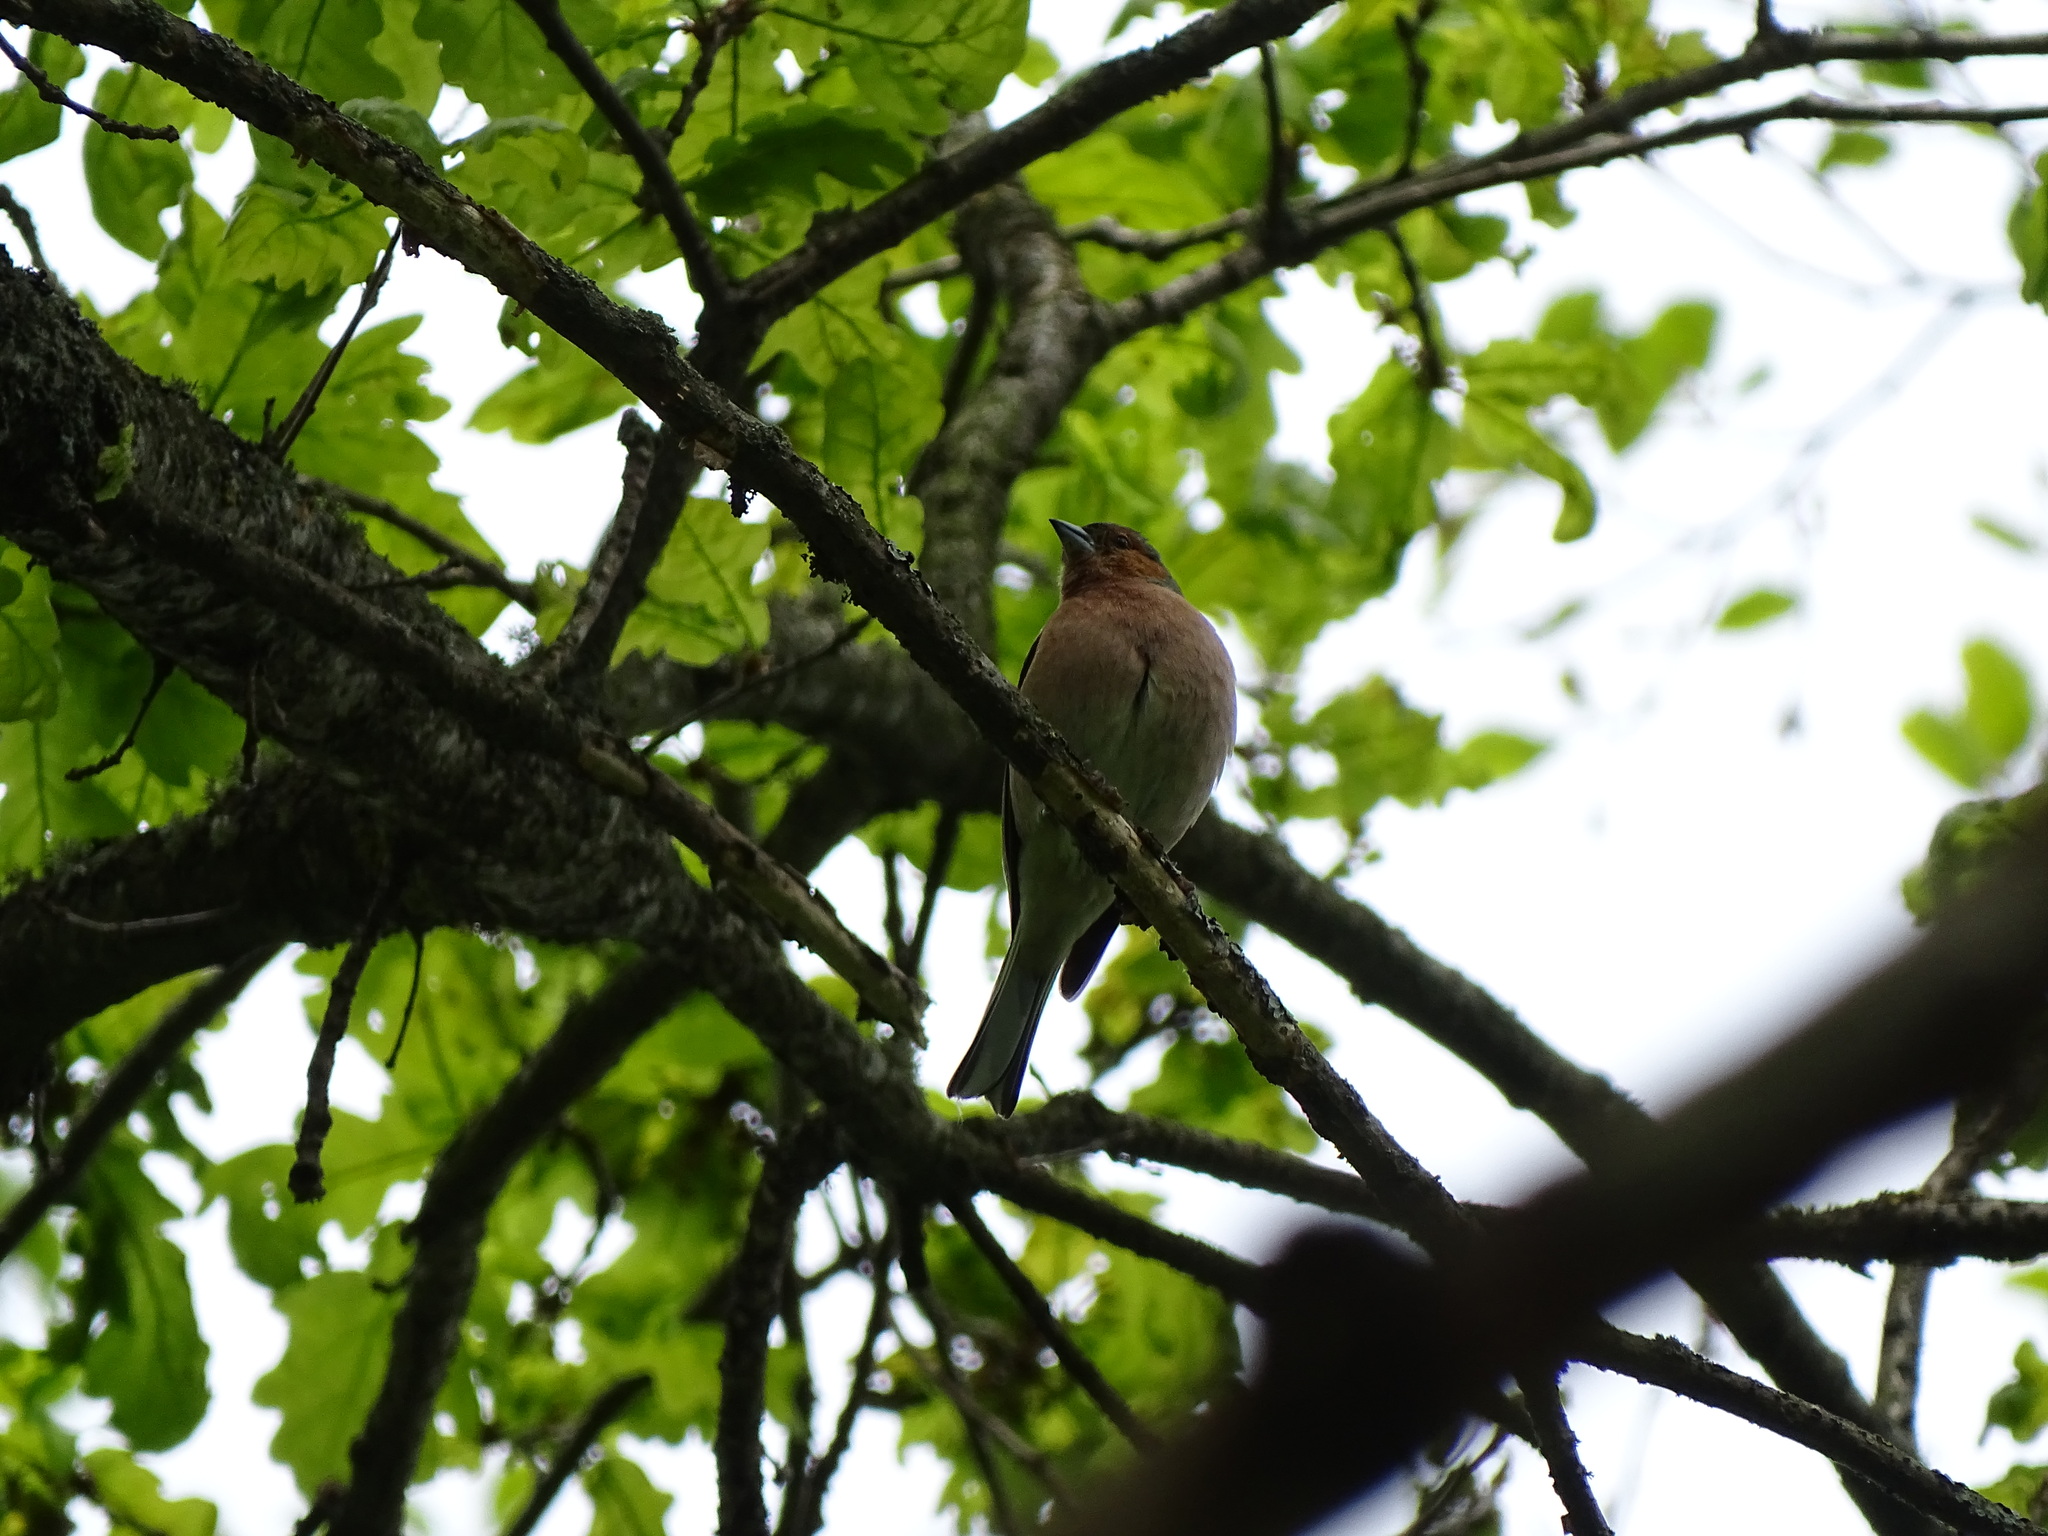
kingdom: Animalia
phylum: Chordata
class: Aves
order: Passeriformes
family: Fringillidae
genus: Fringilla
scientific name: Fringilla coelebs
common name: Common chaffinch
